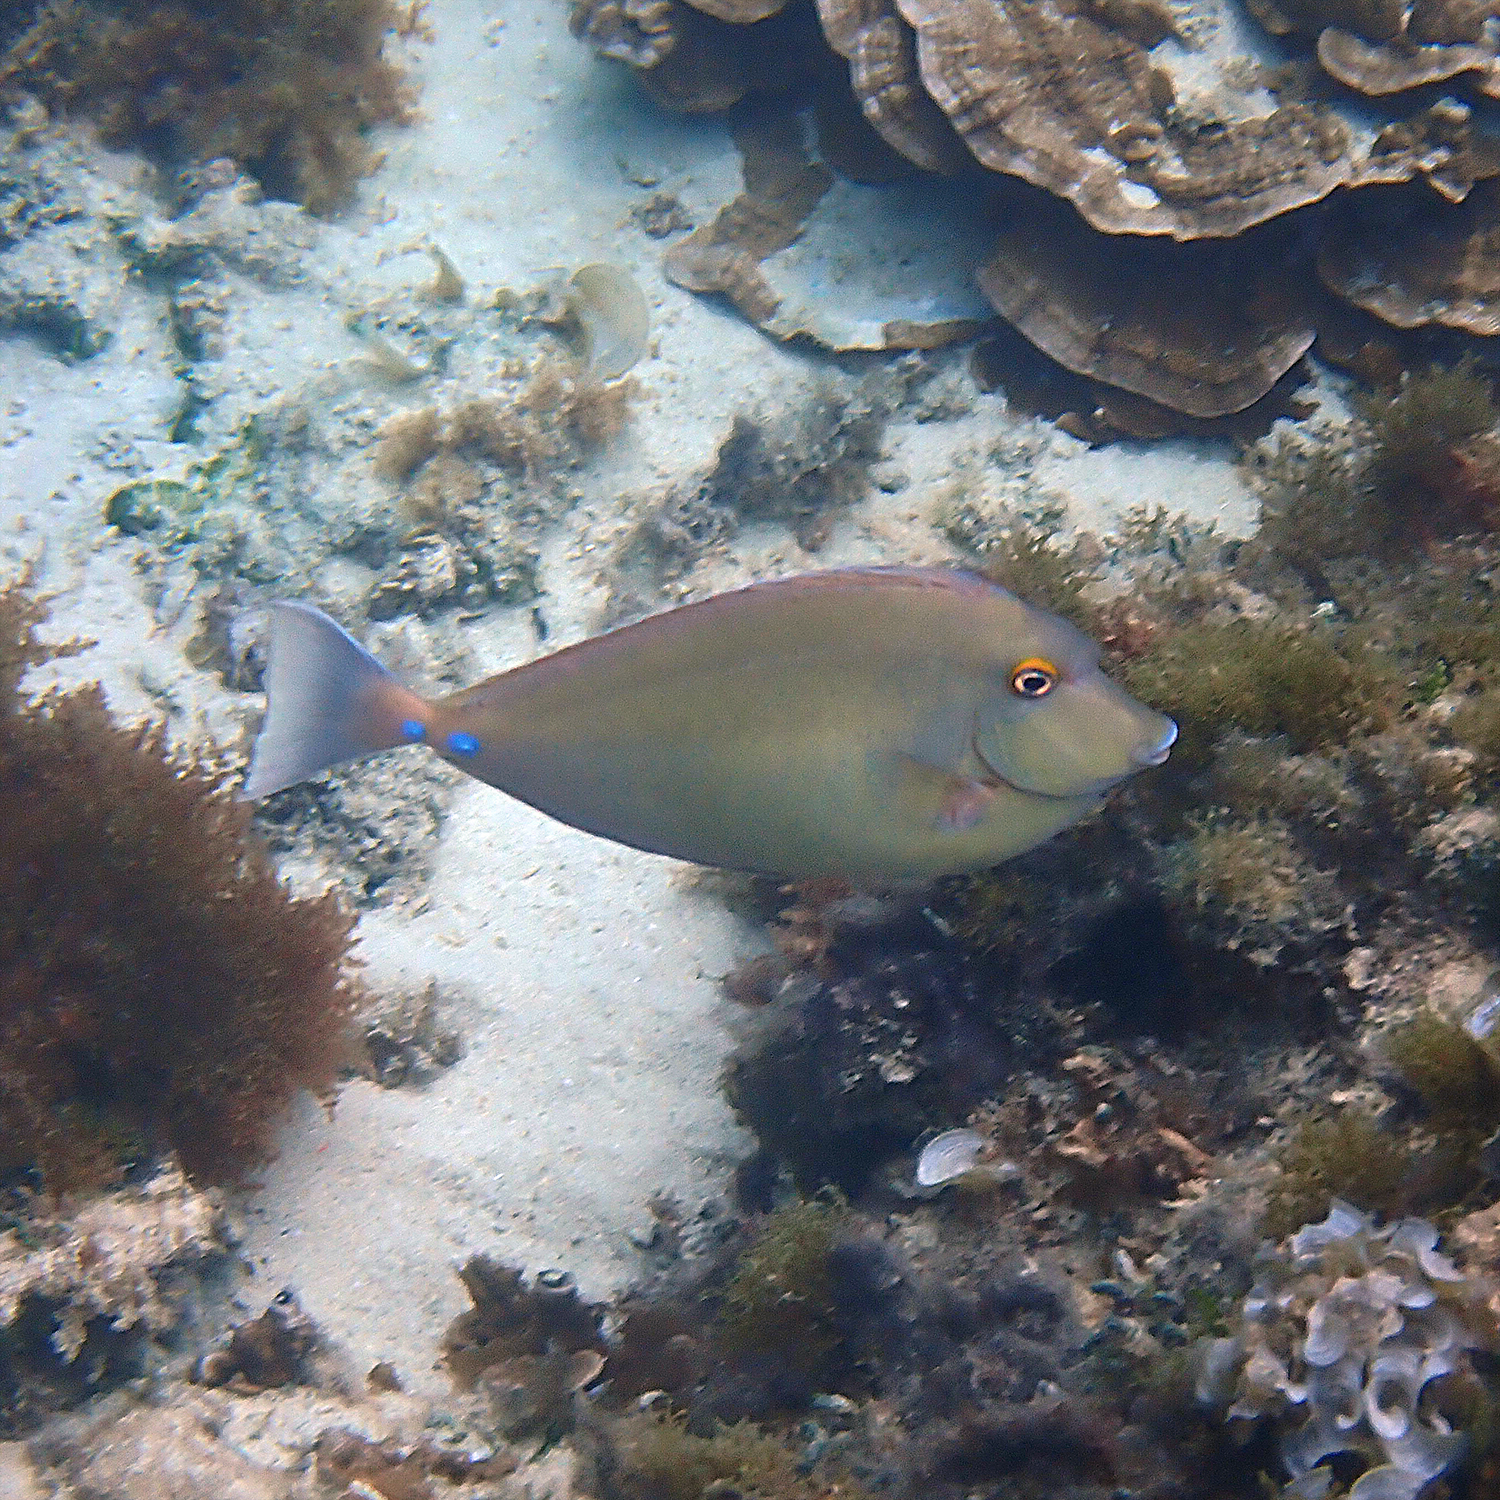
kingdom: Animalia
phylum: Chordata
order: Perciformes
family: Acanthuridae
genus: Naso
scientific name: Naso unicornis
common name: Bluespine unicornfish
